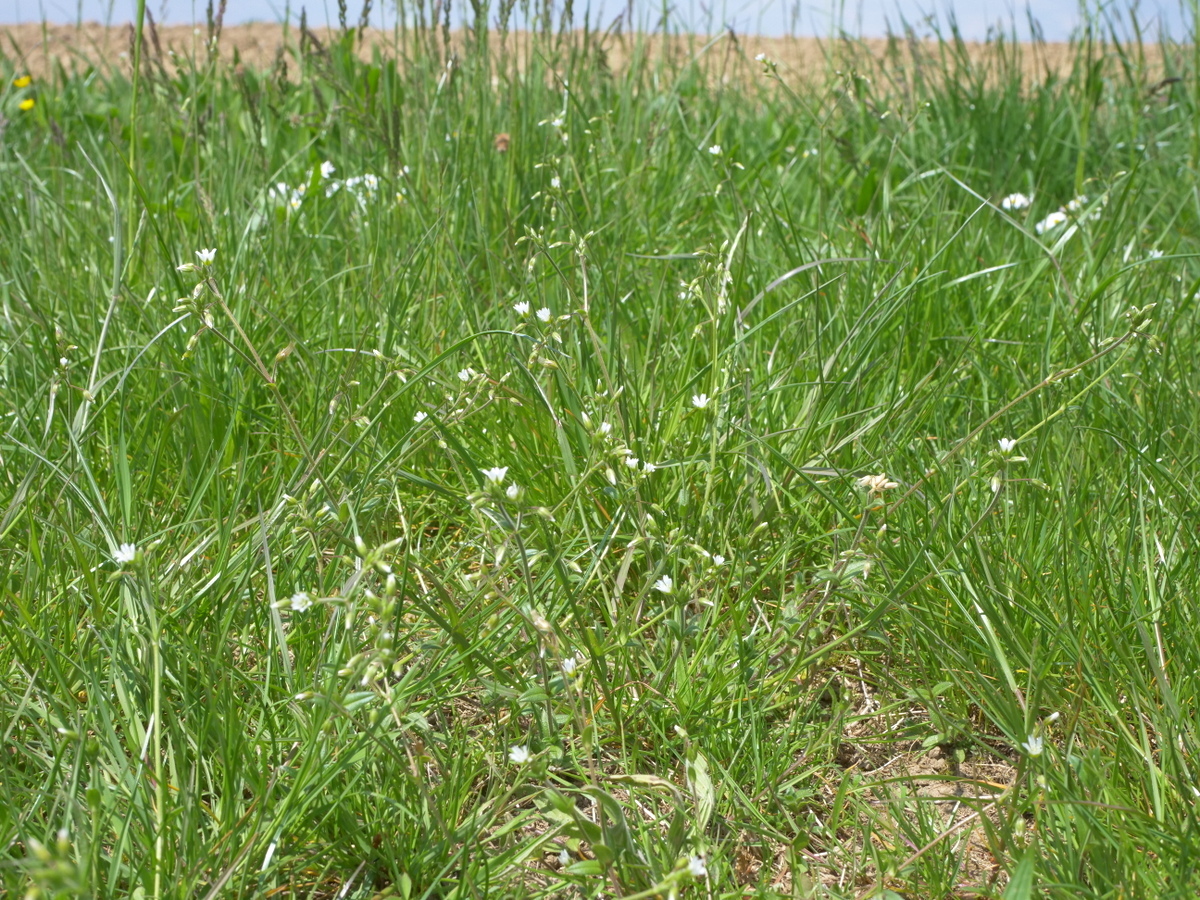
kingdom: Plantae
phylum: Tracheophyta
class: Magnoliopsida
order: Caryophyllales
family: Caryophyllaceae
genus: Cerastium
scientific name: Cerastium holosteoides
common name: Big chickweed
